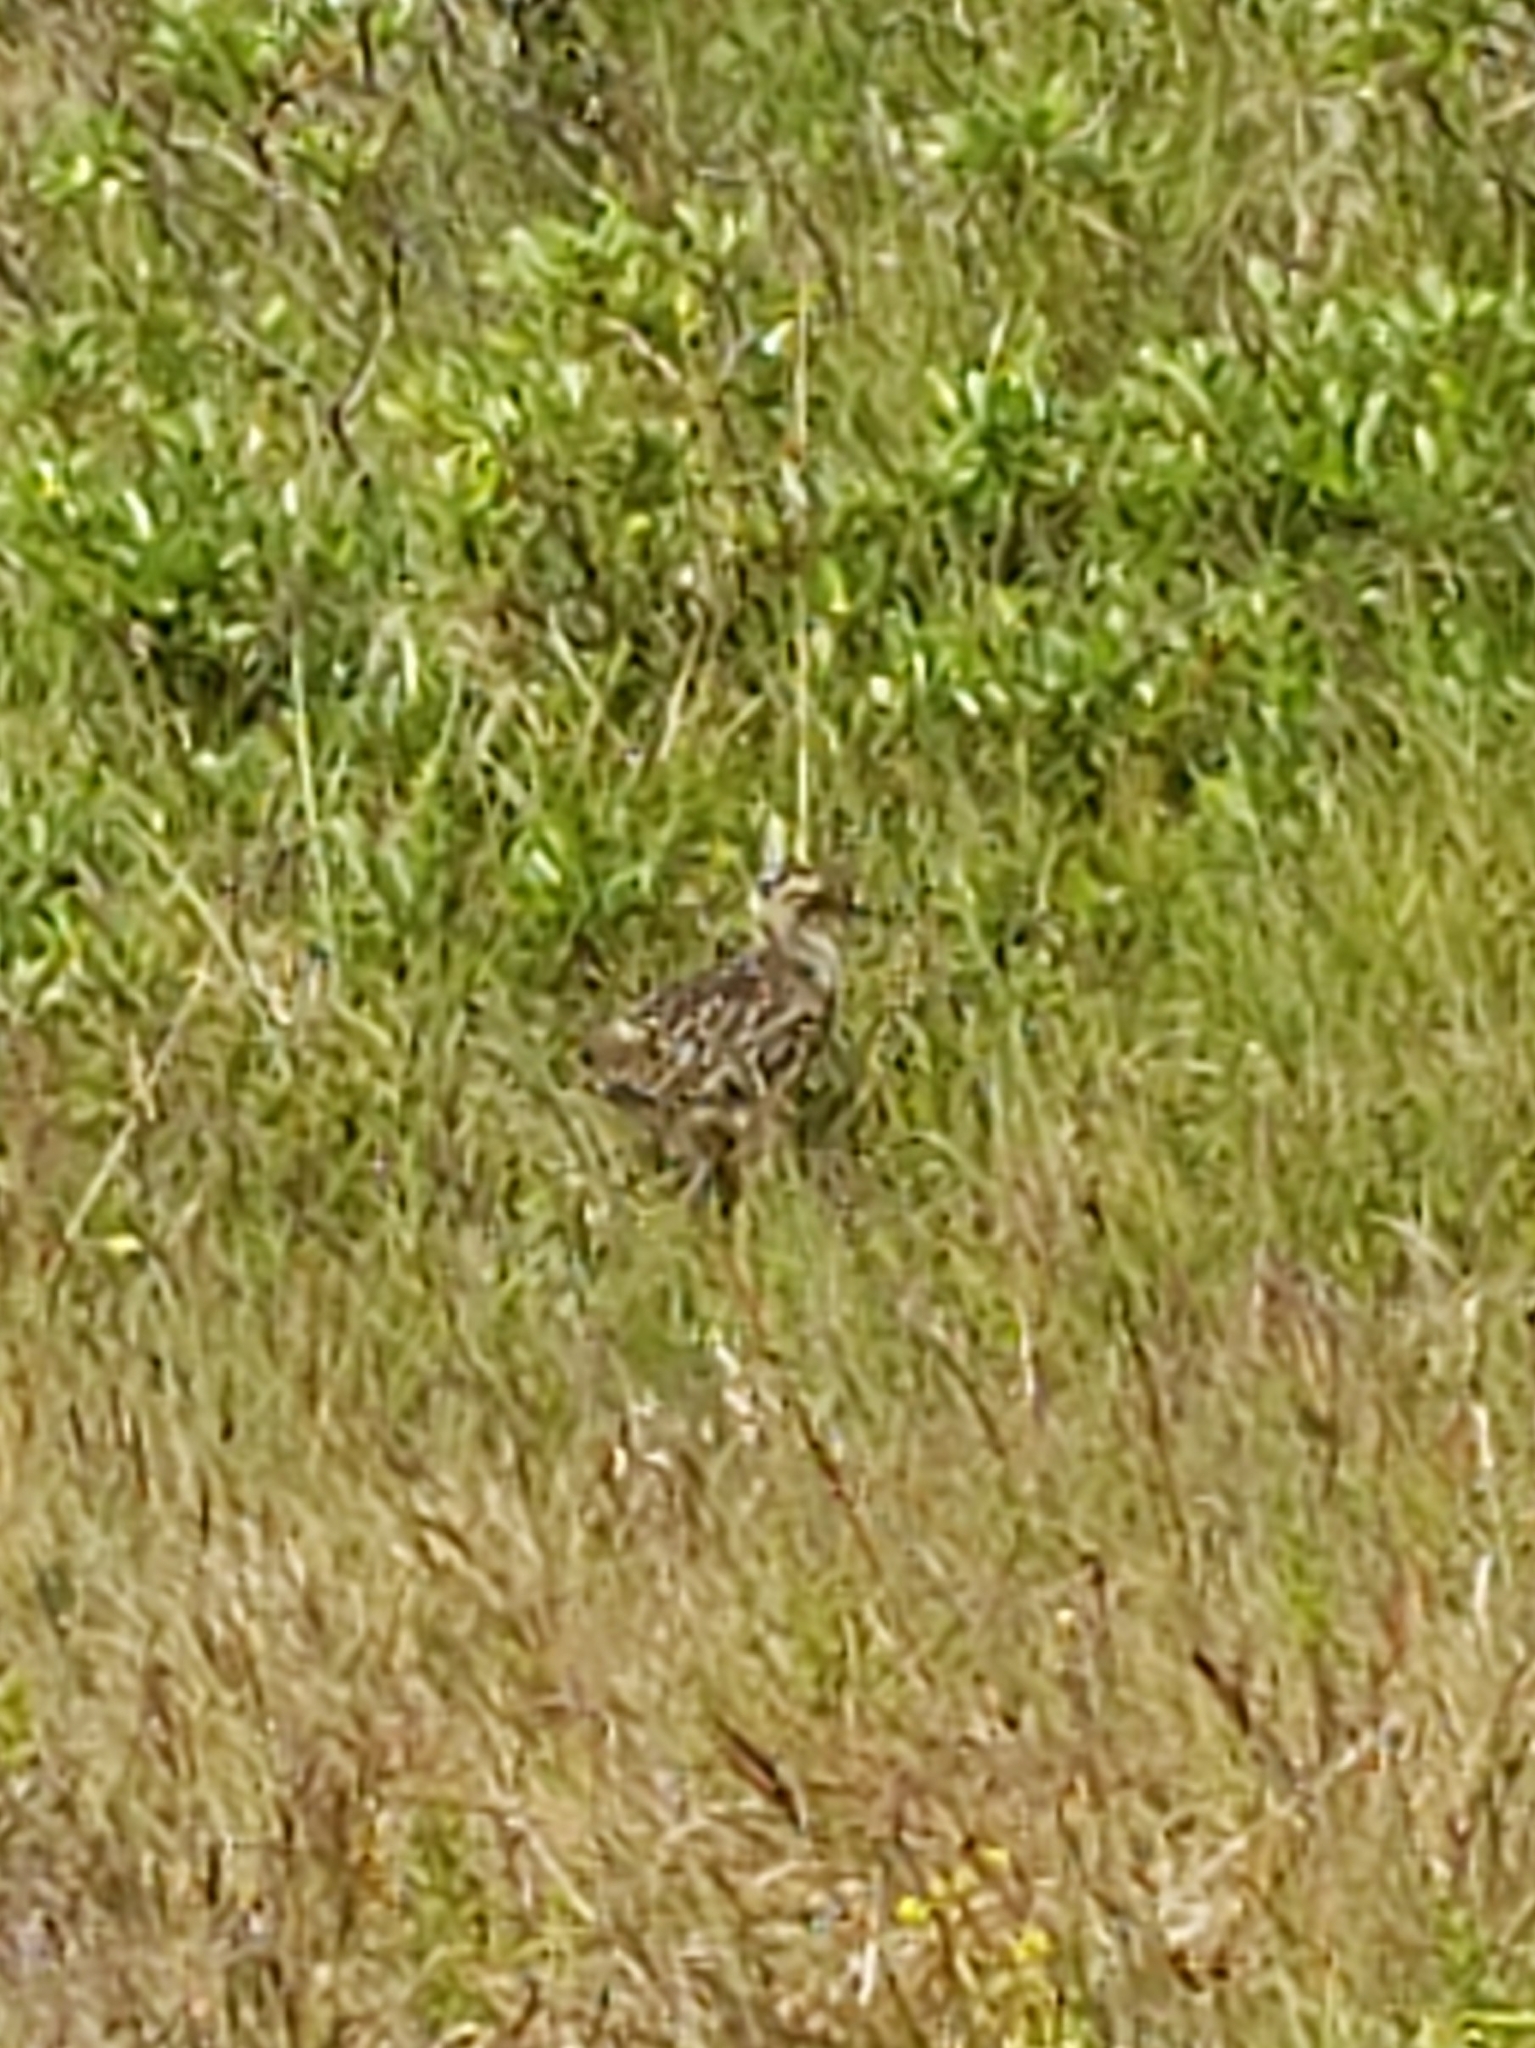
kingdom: Animalia
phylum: Chordata
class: Aves
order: Charadriiformes
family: Scolopacidae
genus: Numenius
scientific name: Numenius phaeopus
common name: Whimbrel
